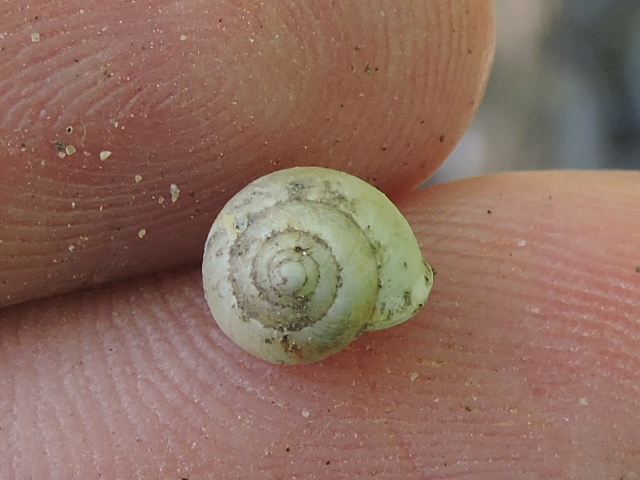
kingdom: Animalia
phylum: Mollusca
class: Gastropoda
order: Cycloneritida
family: Helicinidae
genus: Helicina
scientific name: Helicina orbiculata
